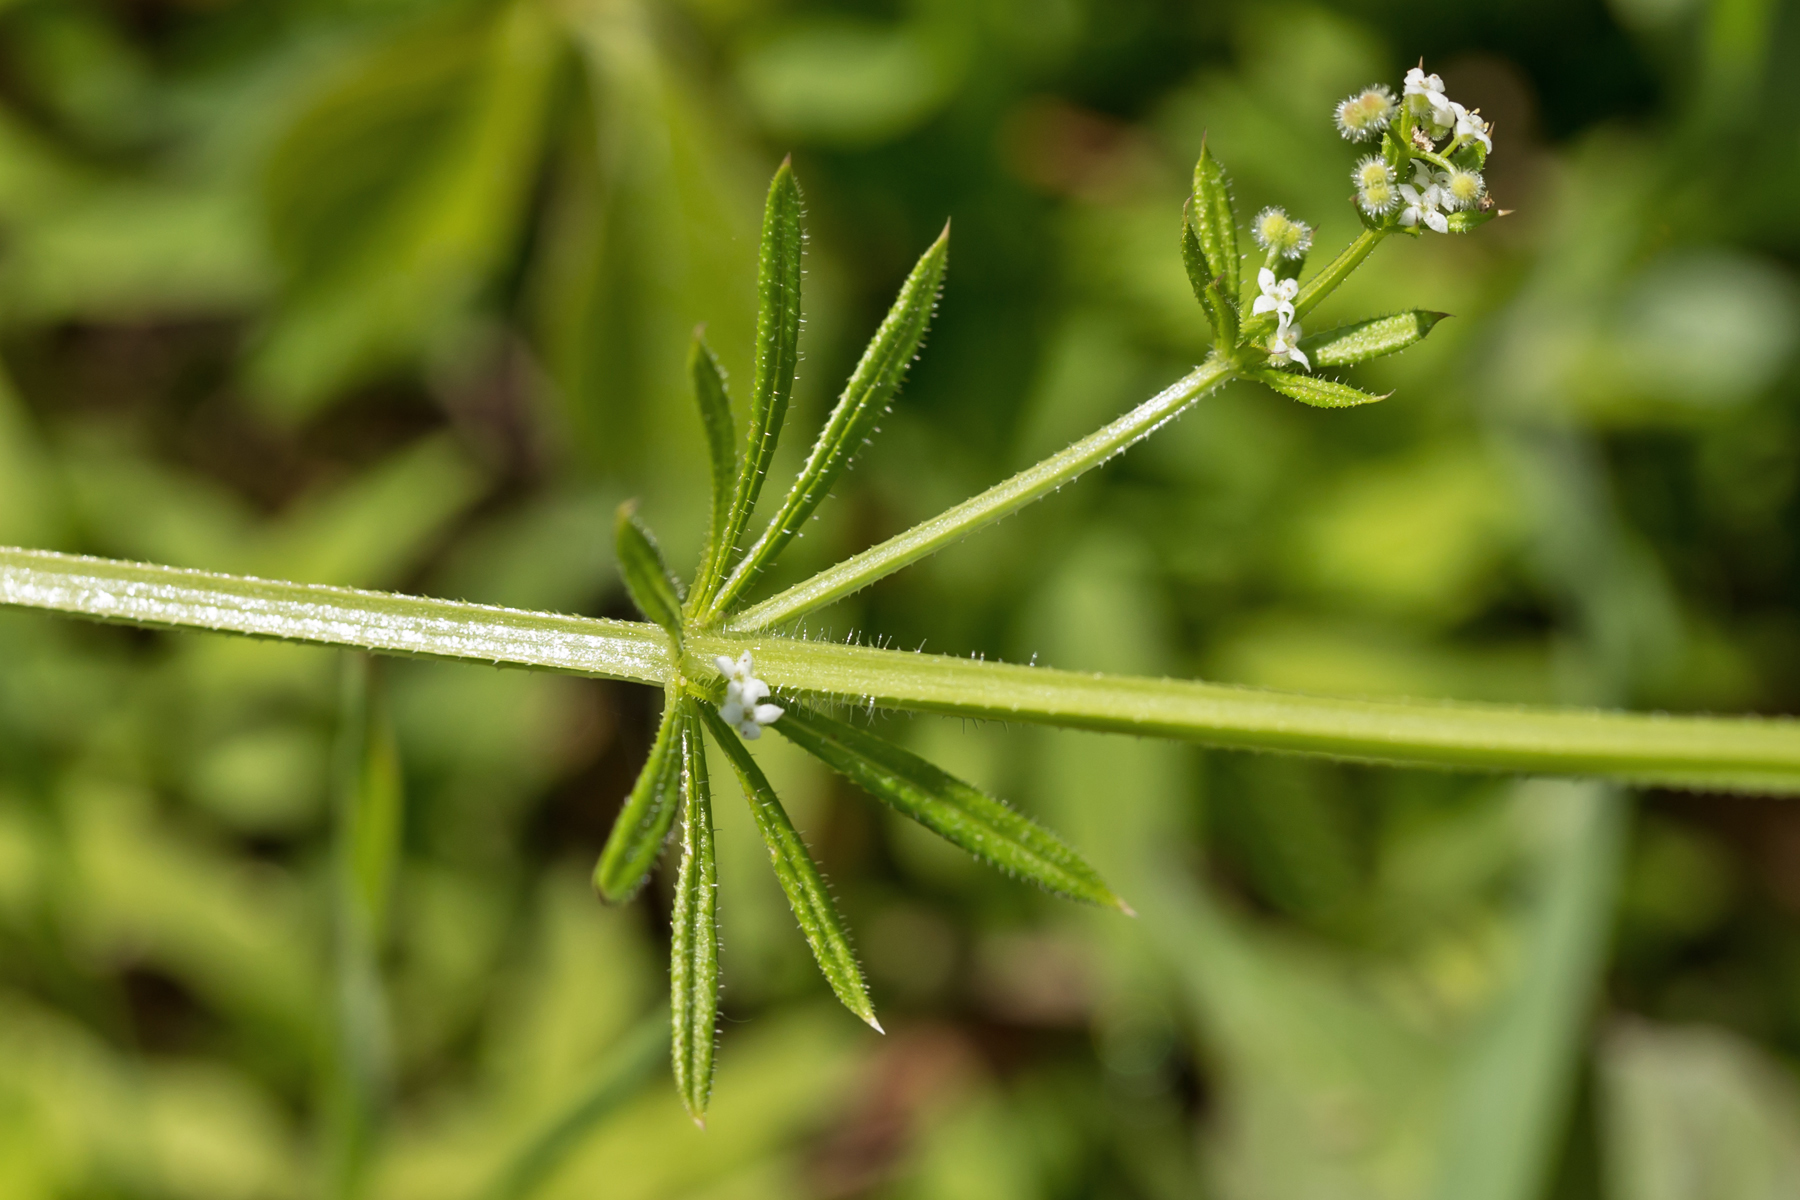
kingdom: Plantae
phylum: Tracheophyta
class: Magnoliopsida
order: Gentianales
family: Rubiaceae
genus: Galium
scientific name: Galium aparine
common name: Cleavers
